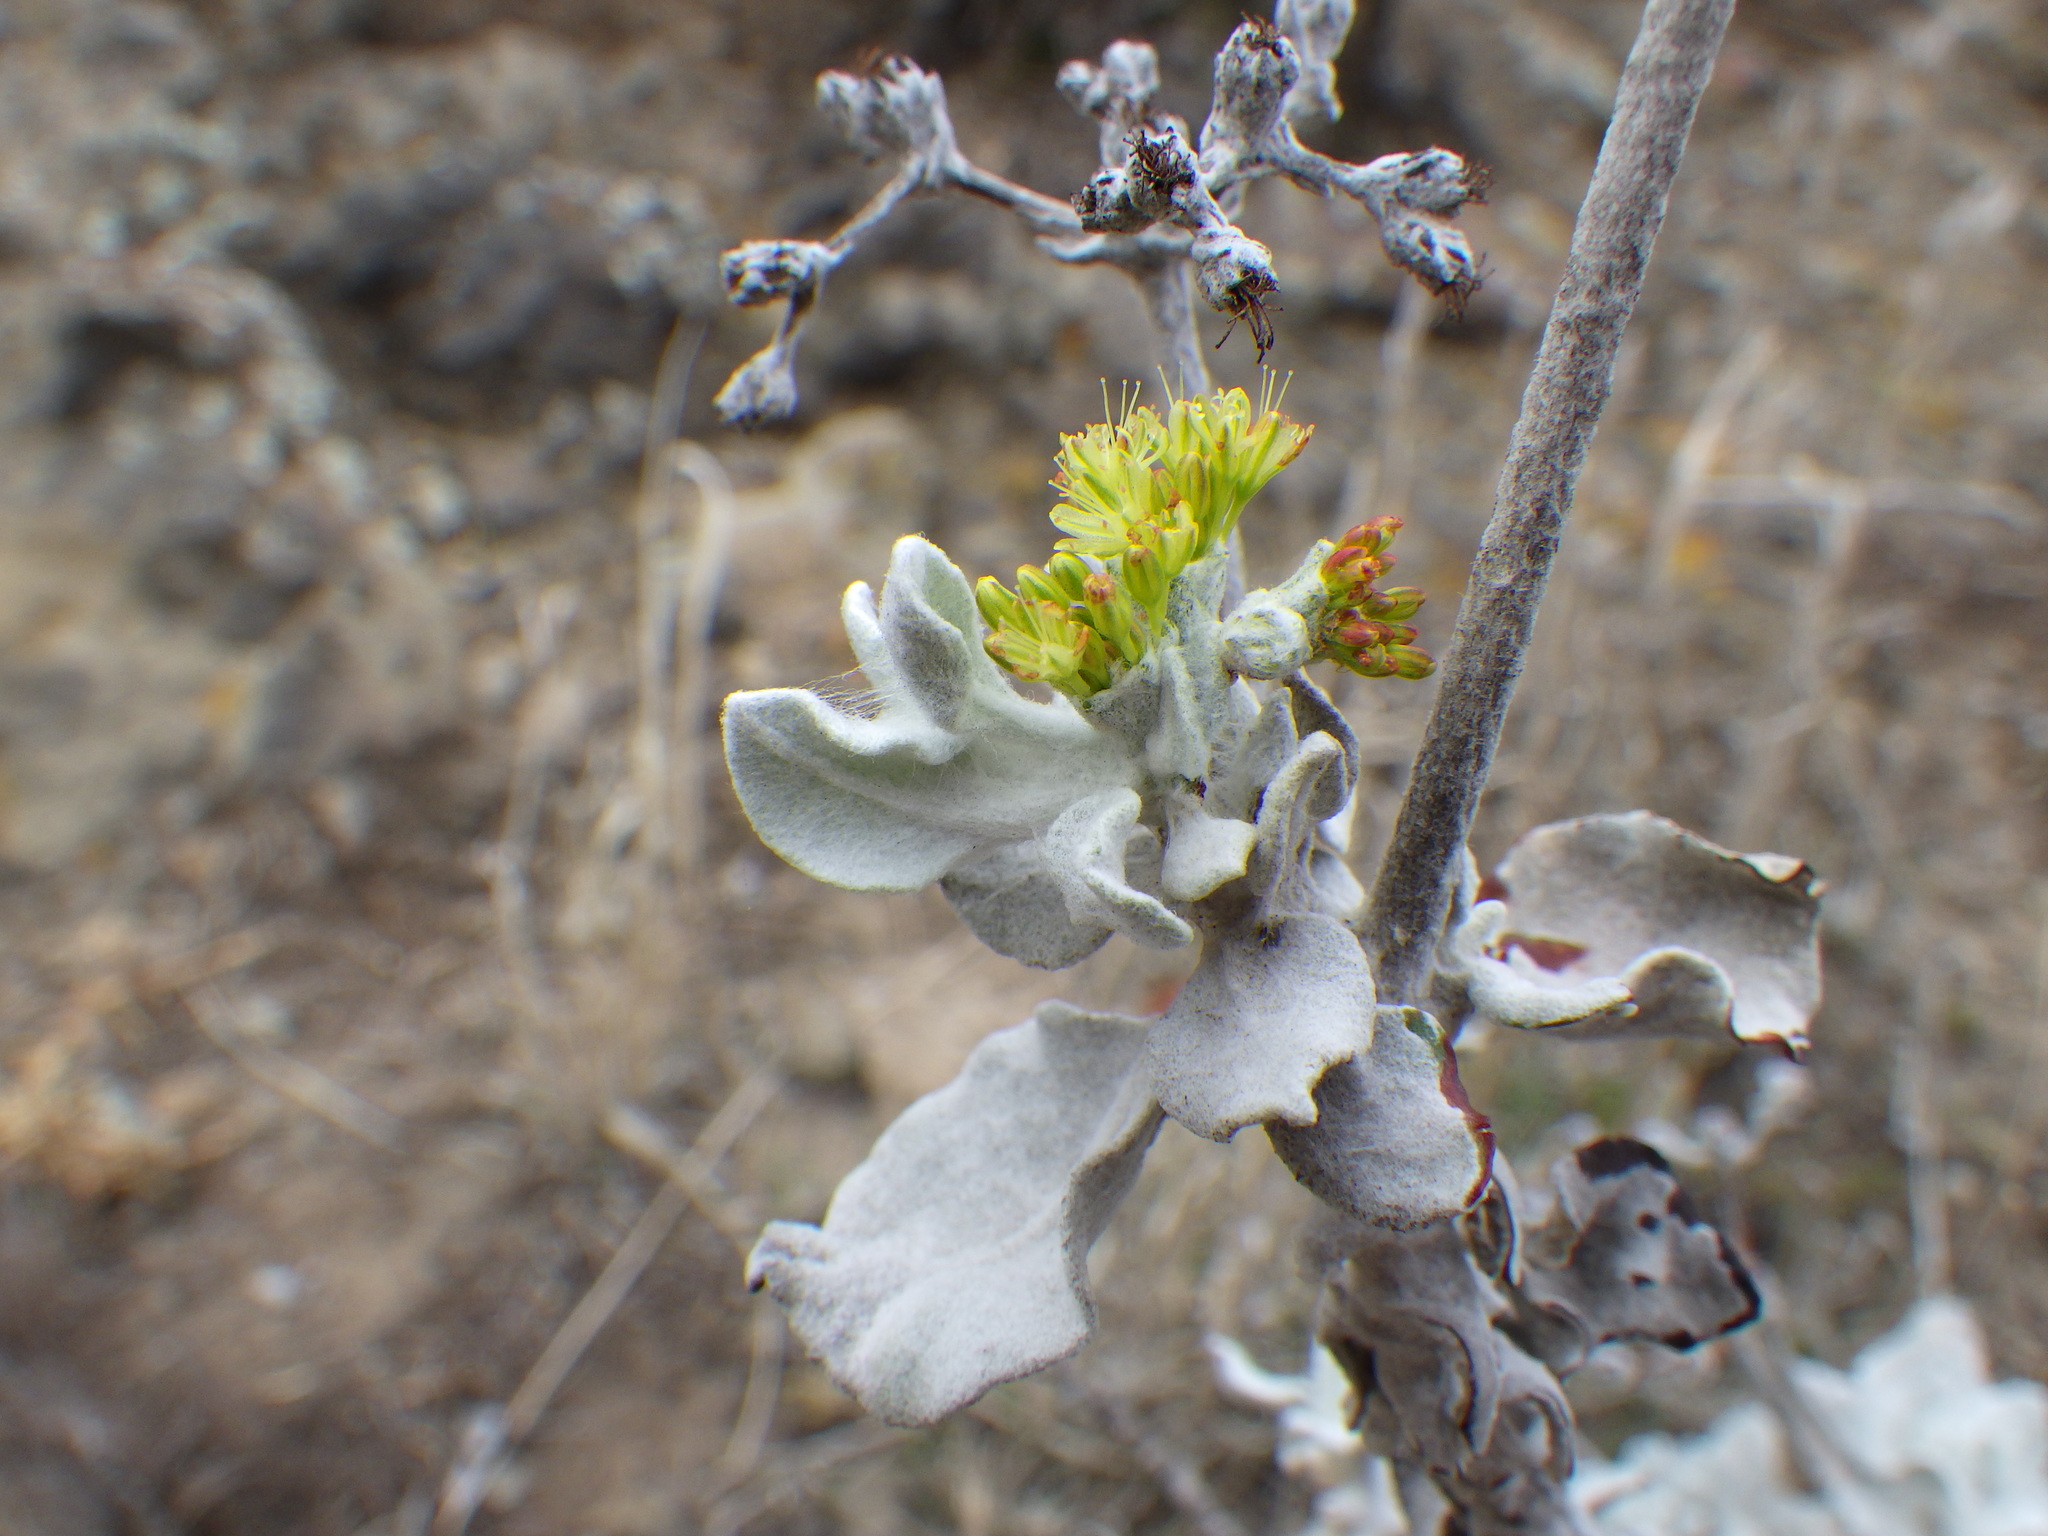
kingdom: Plantae
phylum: Tracheophyta
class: Magnoliopsida
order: Caryophyllales
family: Polygonaceae
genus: Eriogonum
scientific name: Eriogonum crocatum
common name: Saffron wild buckwheat
